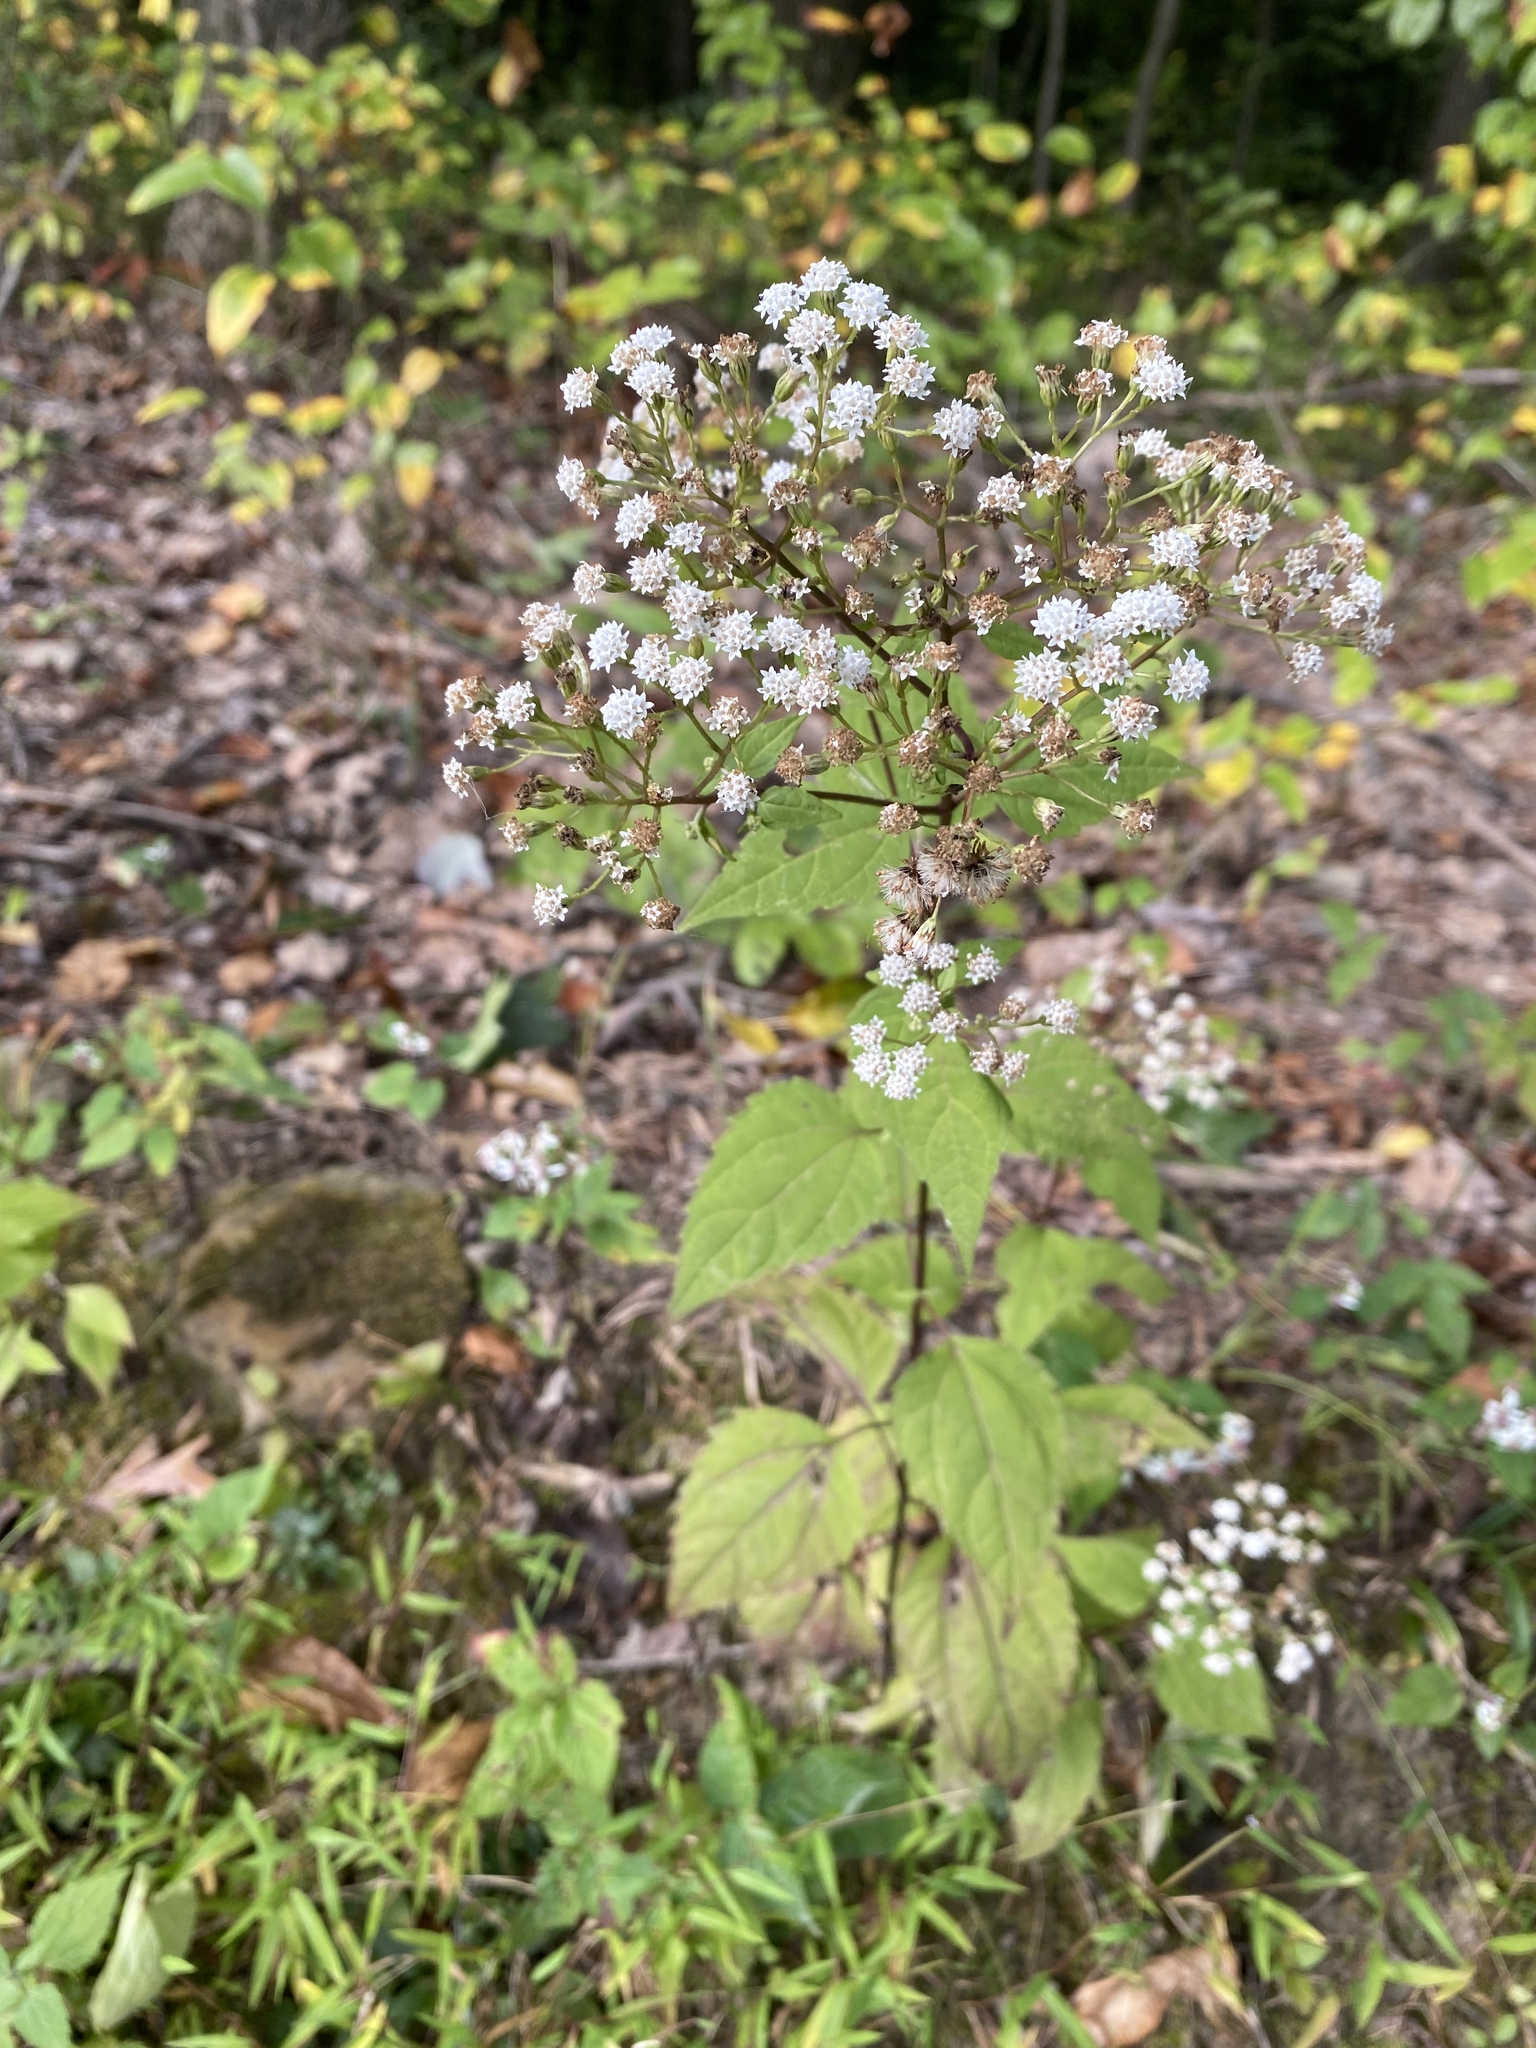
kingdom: Plantae
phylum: Tracheophyta
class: Magnoliopsida
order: Asterales
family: Asteraceae
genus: Ageratina
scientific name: Ageratina altissima
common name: White snakeroot
